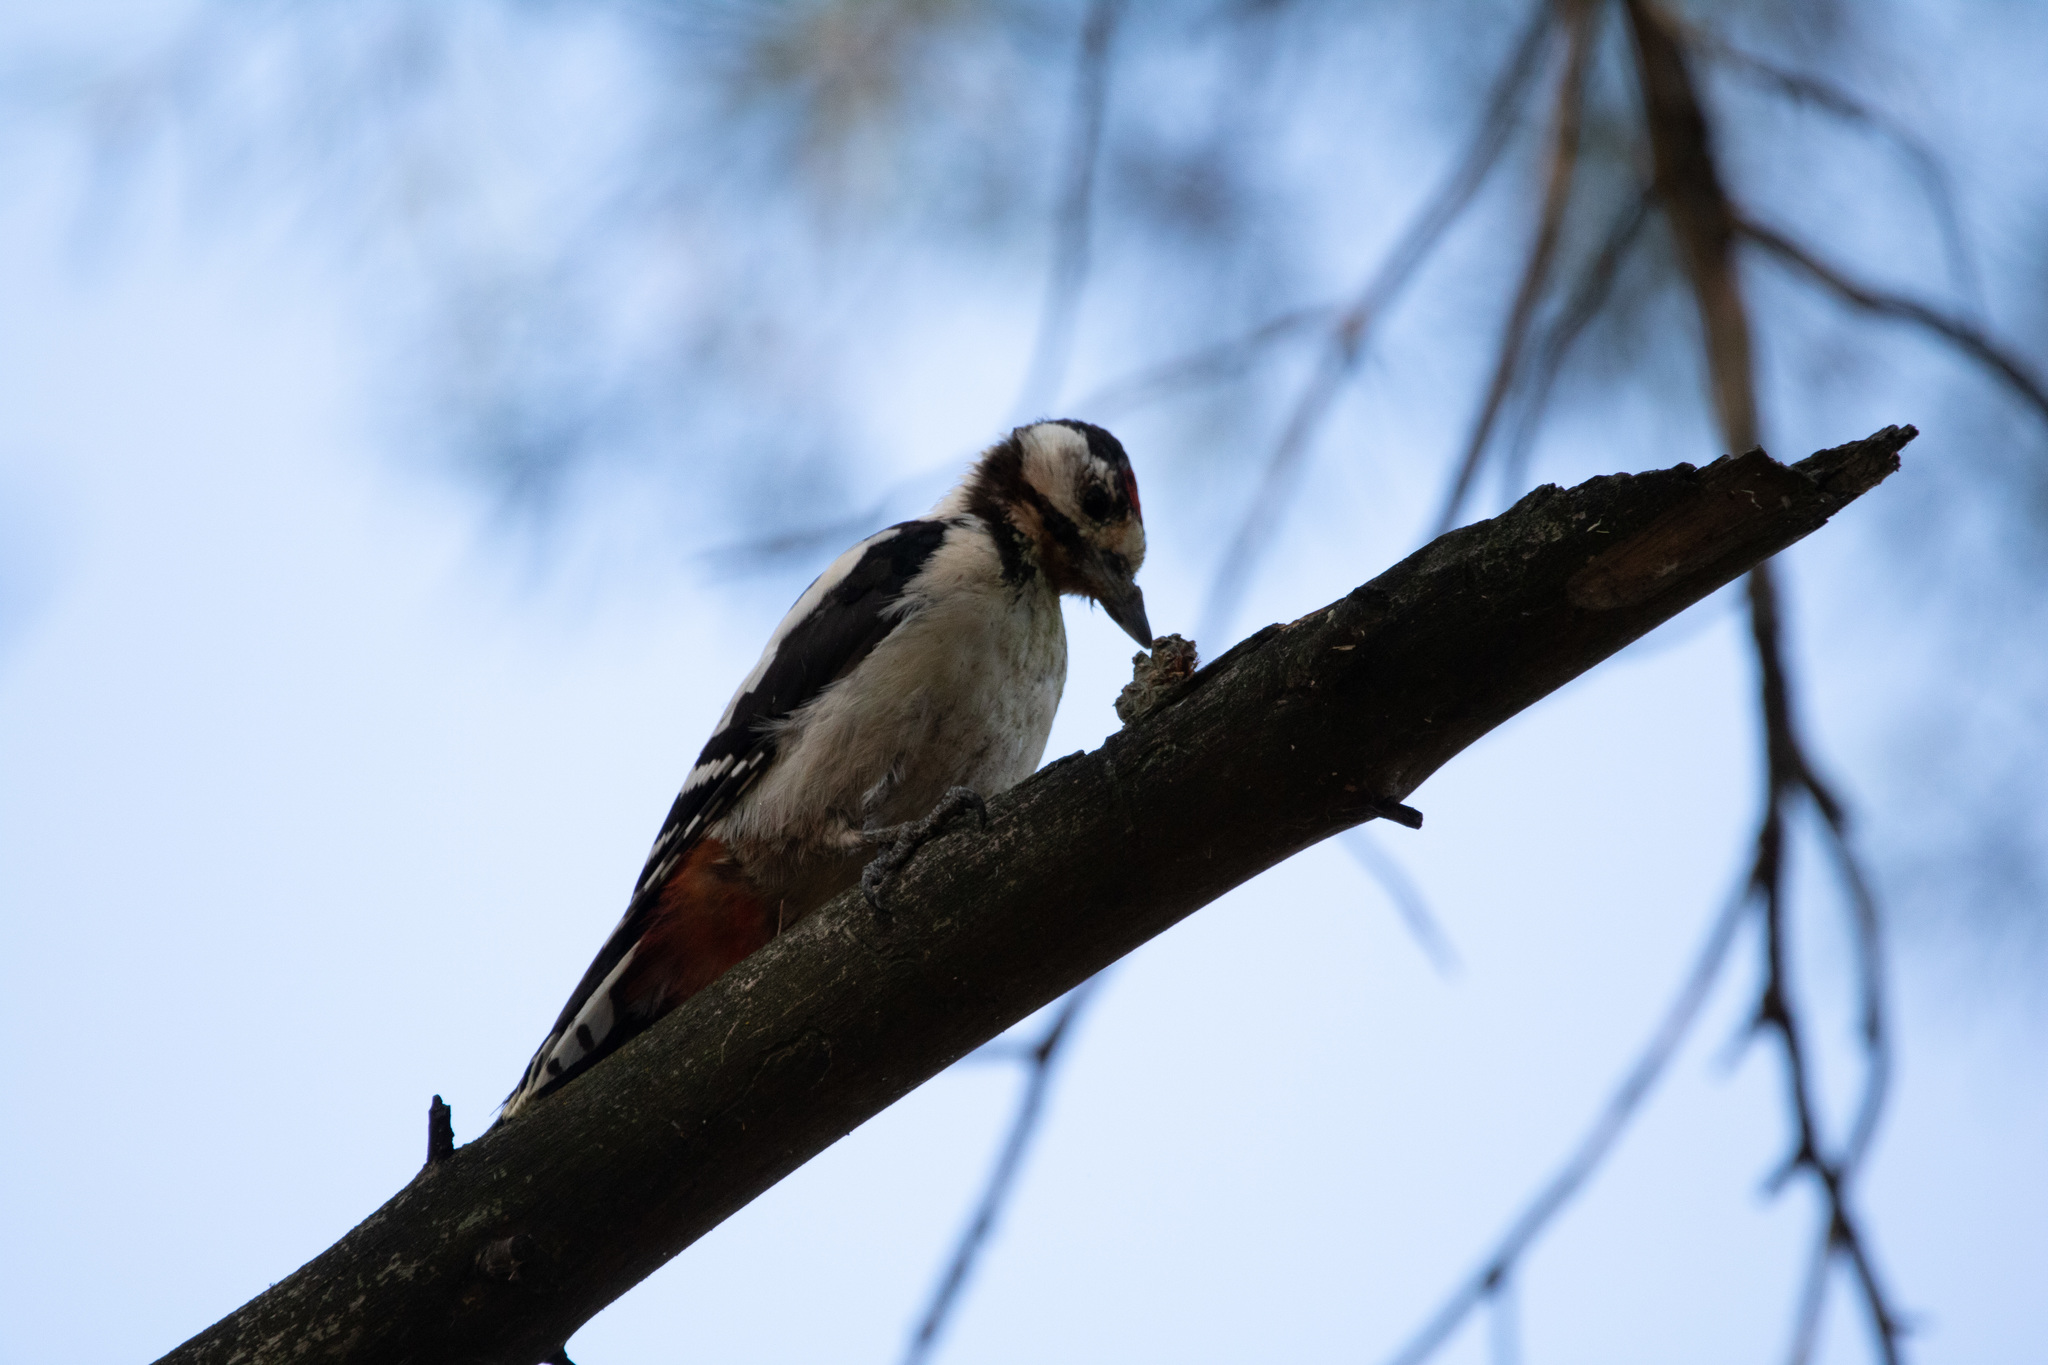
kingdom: Animalia
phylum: Chordata
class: Aves
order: Piciformes
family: Picidae
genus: Dendrocopos
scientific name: Dendrocopos major
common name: Great spotted woodpecker
